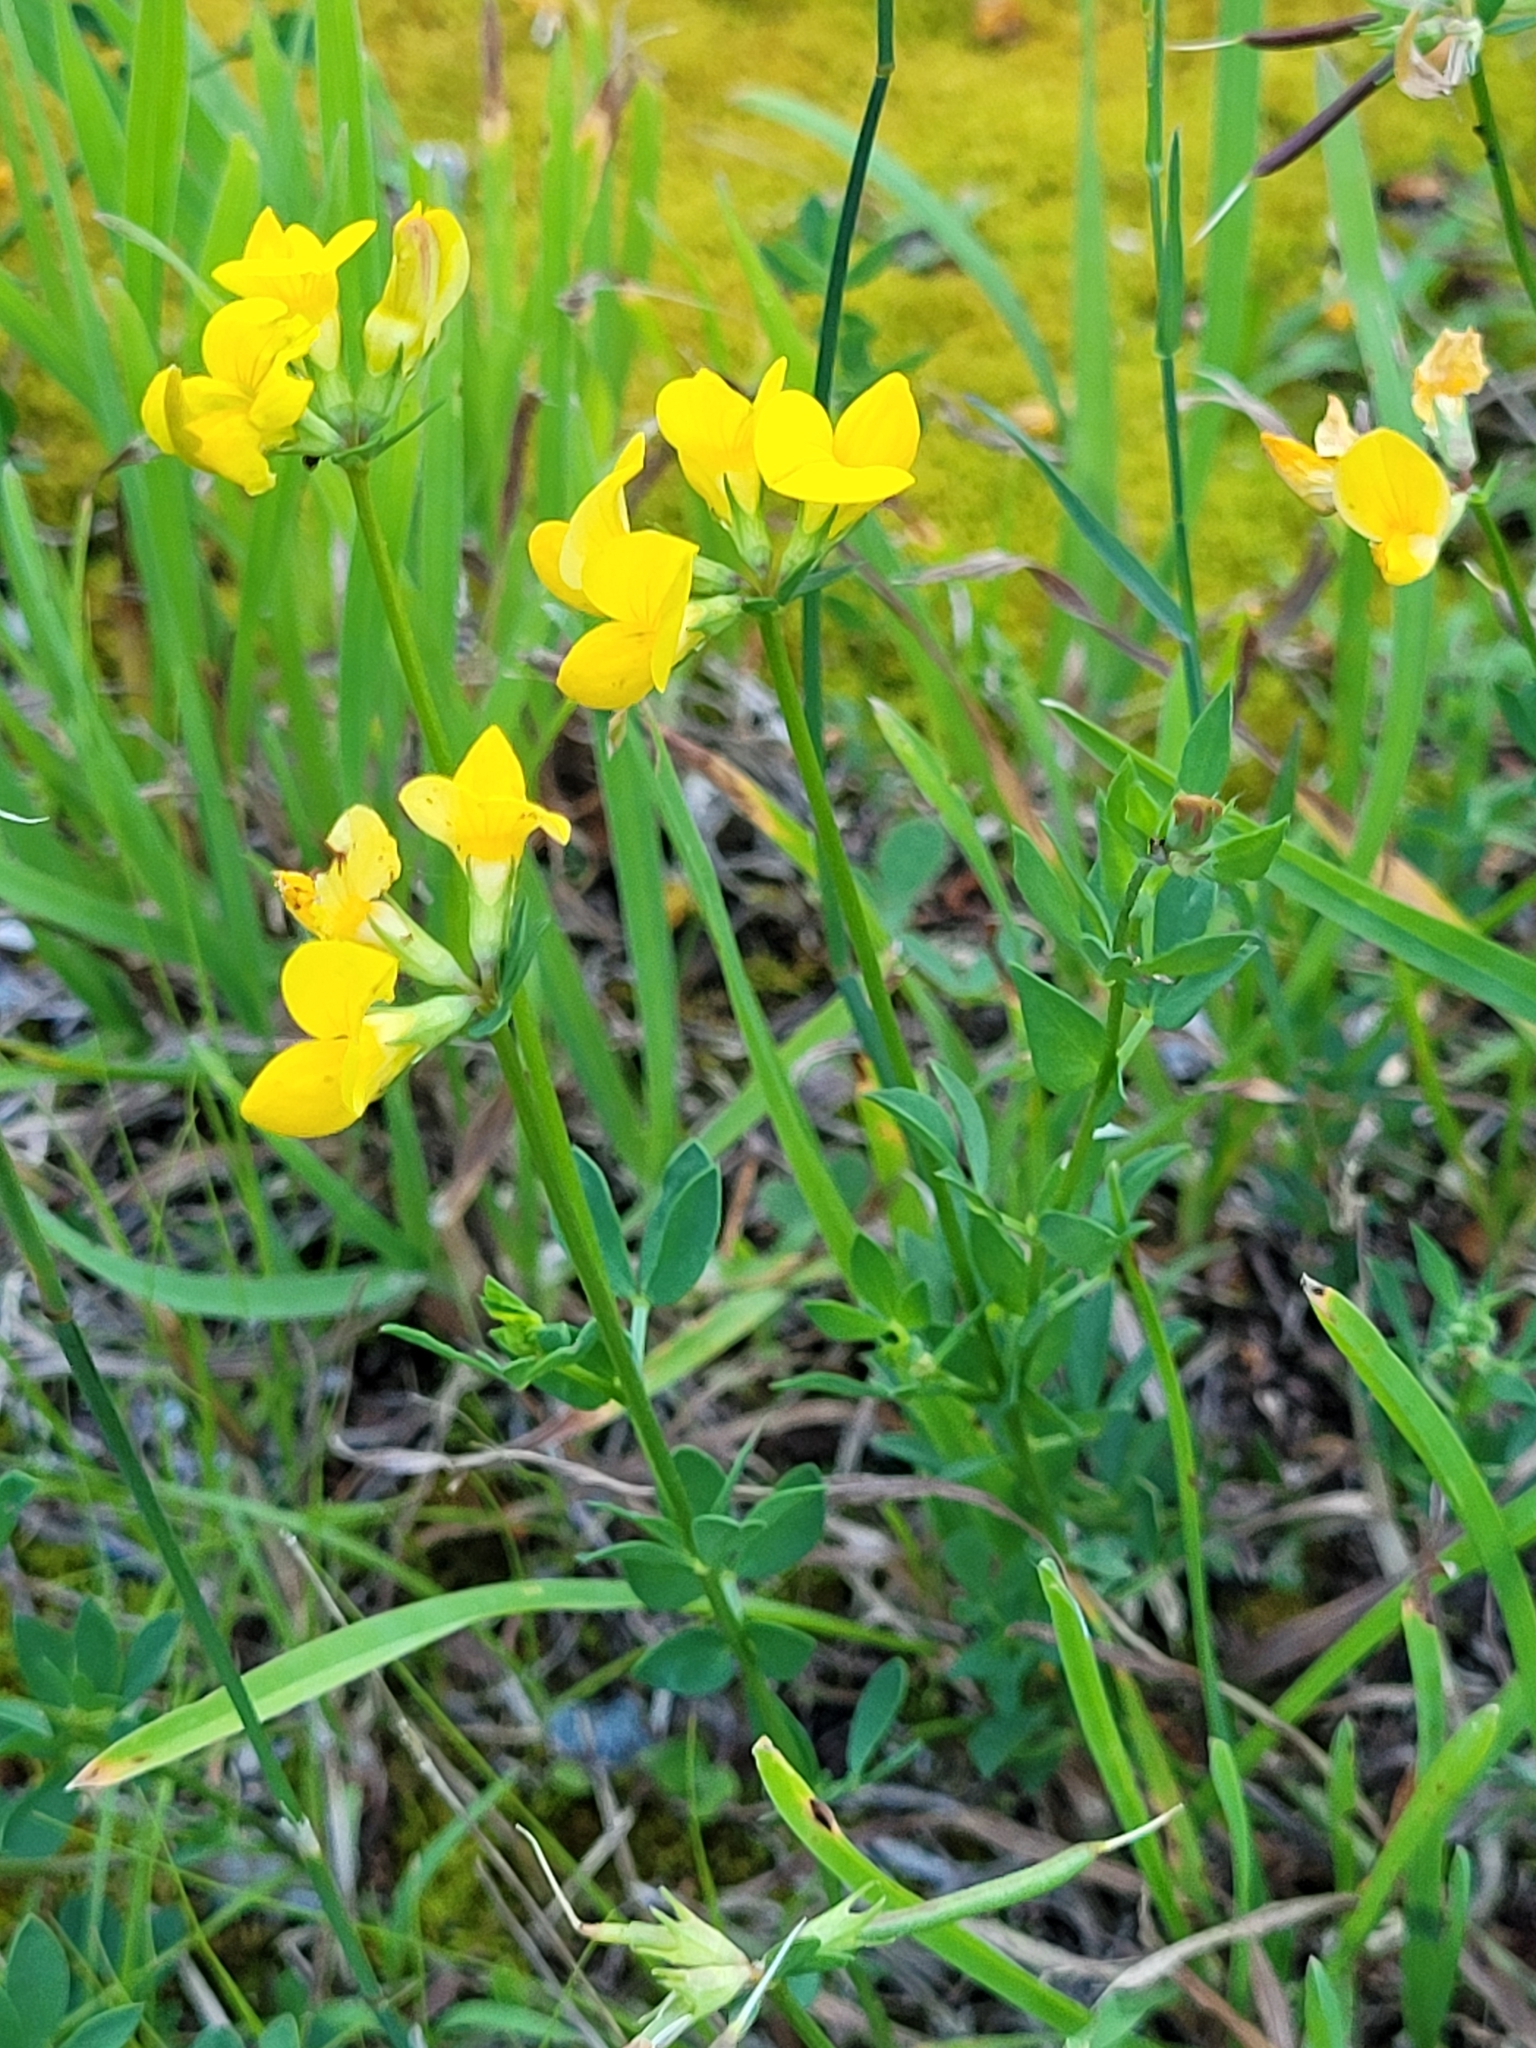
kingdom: Plantae
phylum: Tracheophyta
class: Magnoliopsida
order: Fabales
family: Fabaceae
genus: Lotus
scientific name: Lotus corniculatus
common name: Common bird's-foot-trefoil
